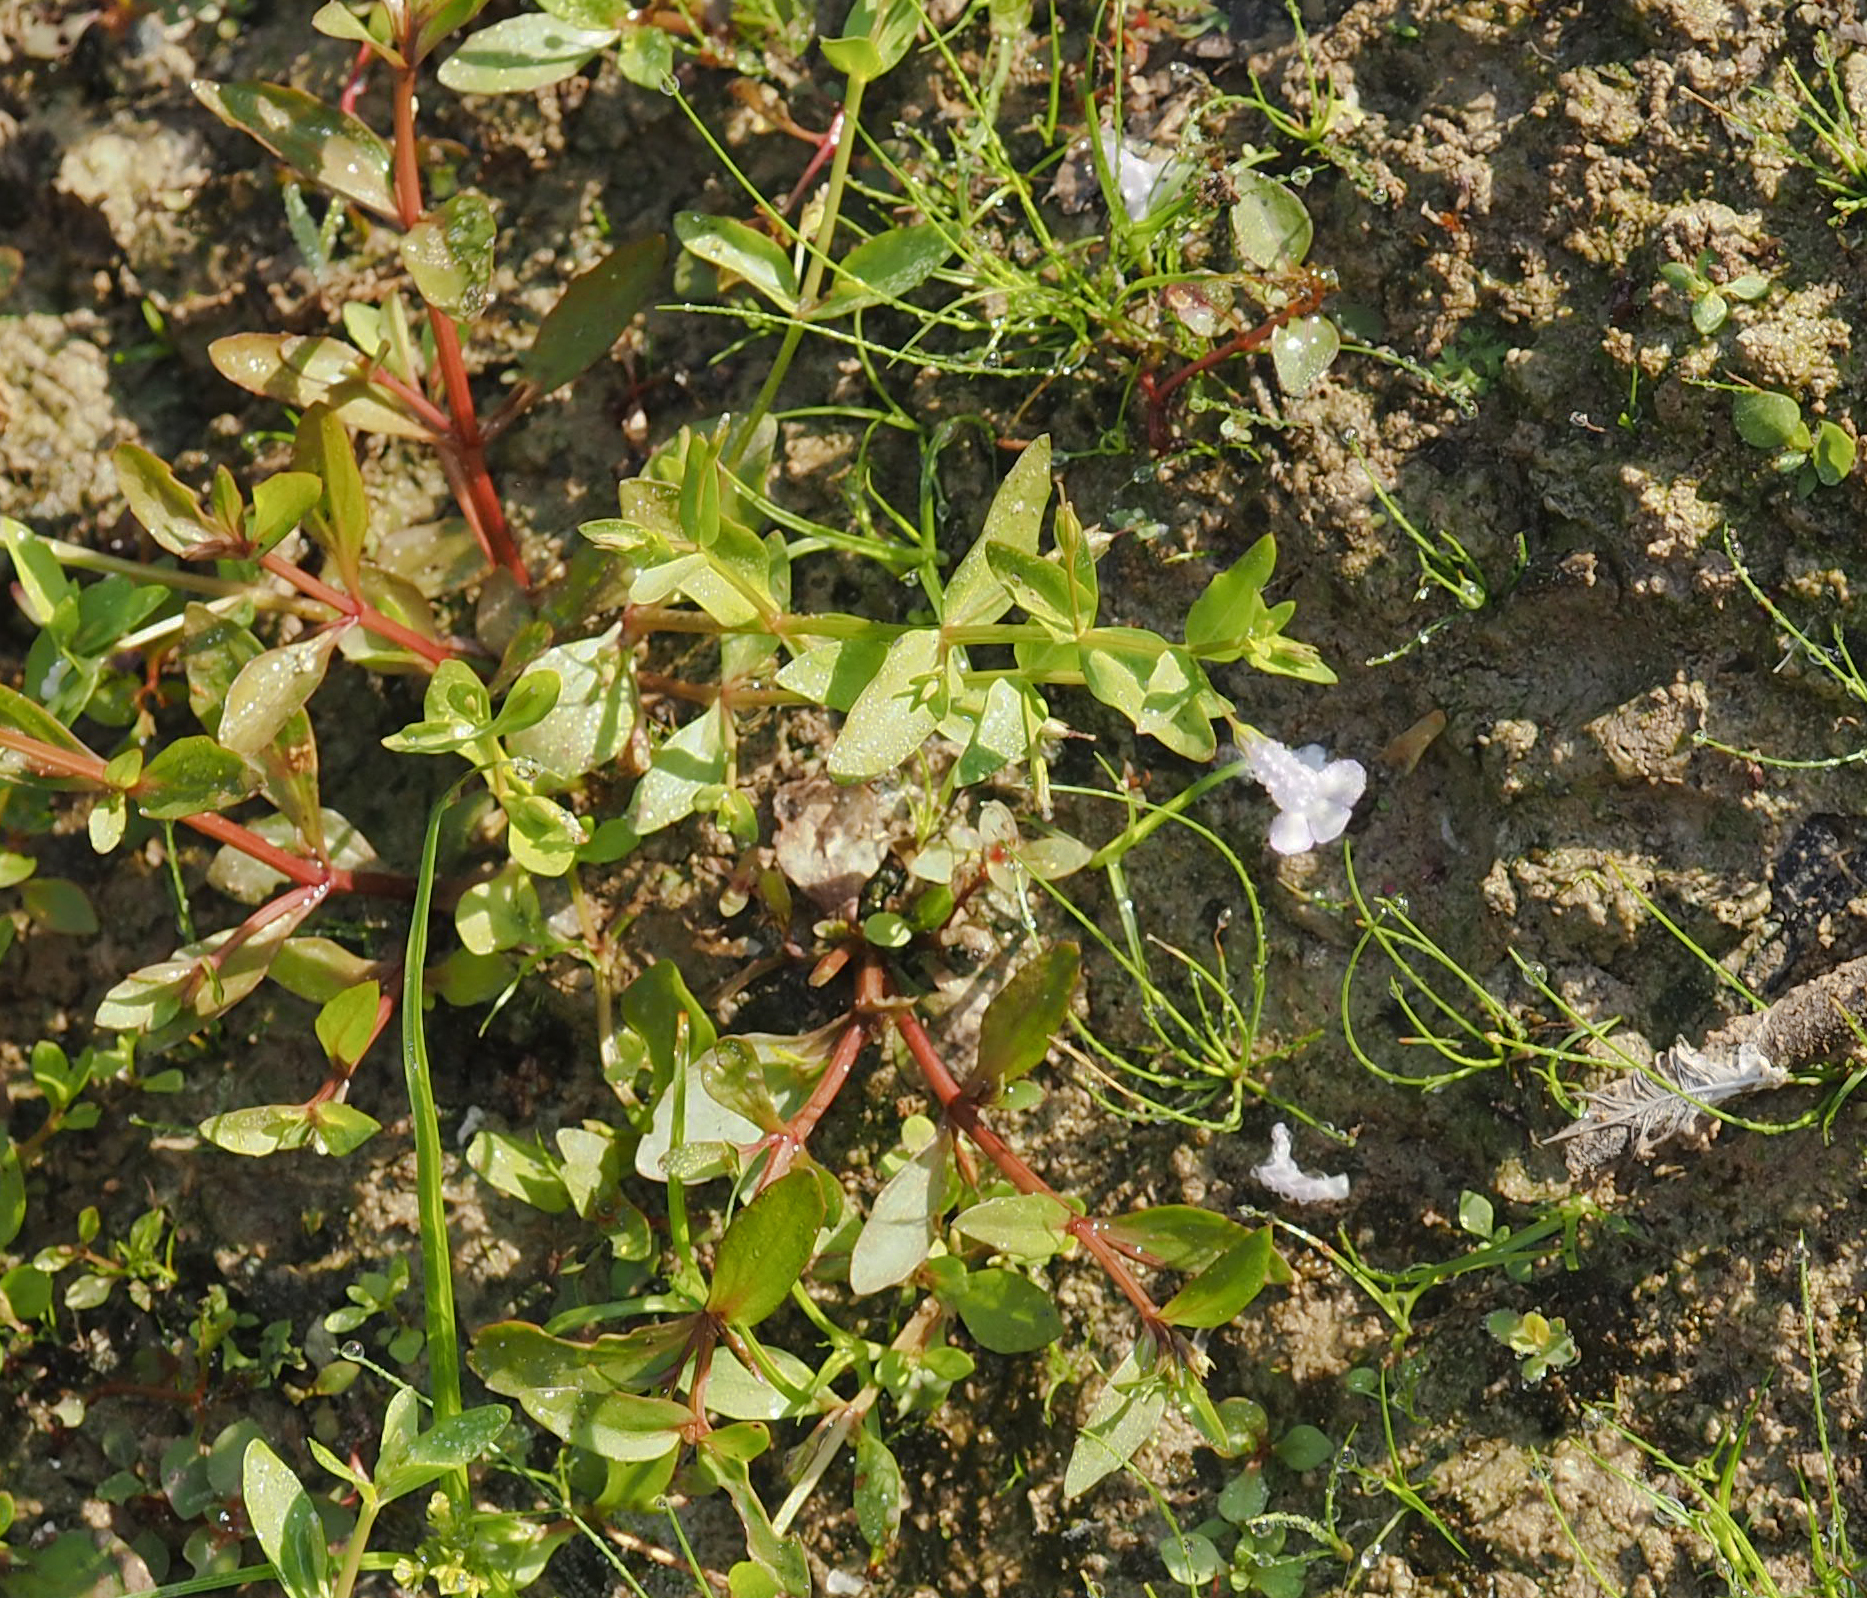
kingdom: Plantae
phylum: Tracheophyta
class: Magnoliopsida
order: Lamiales
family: Linderniaceae
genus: Lindernia
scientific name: Lindernia dubia
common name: Annual false pimpernel
